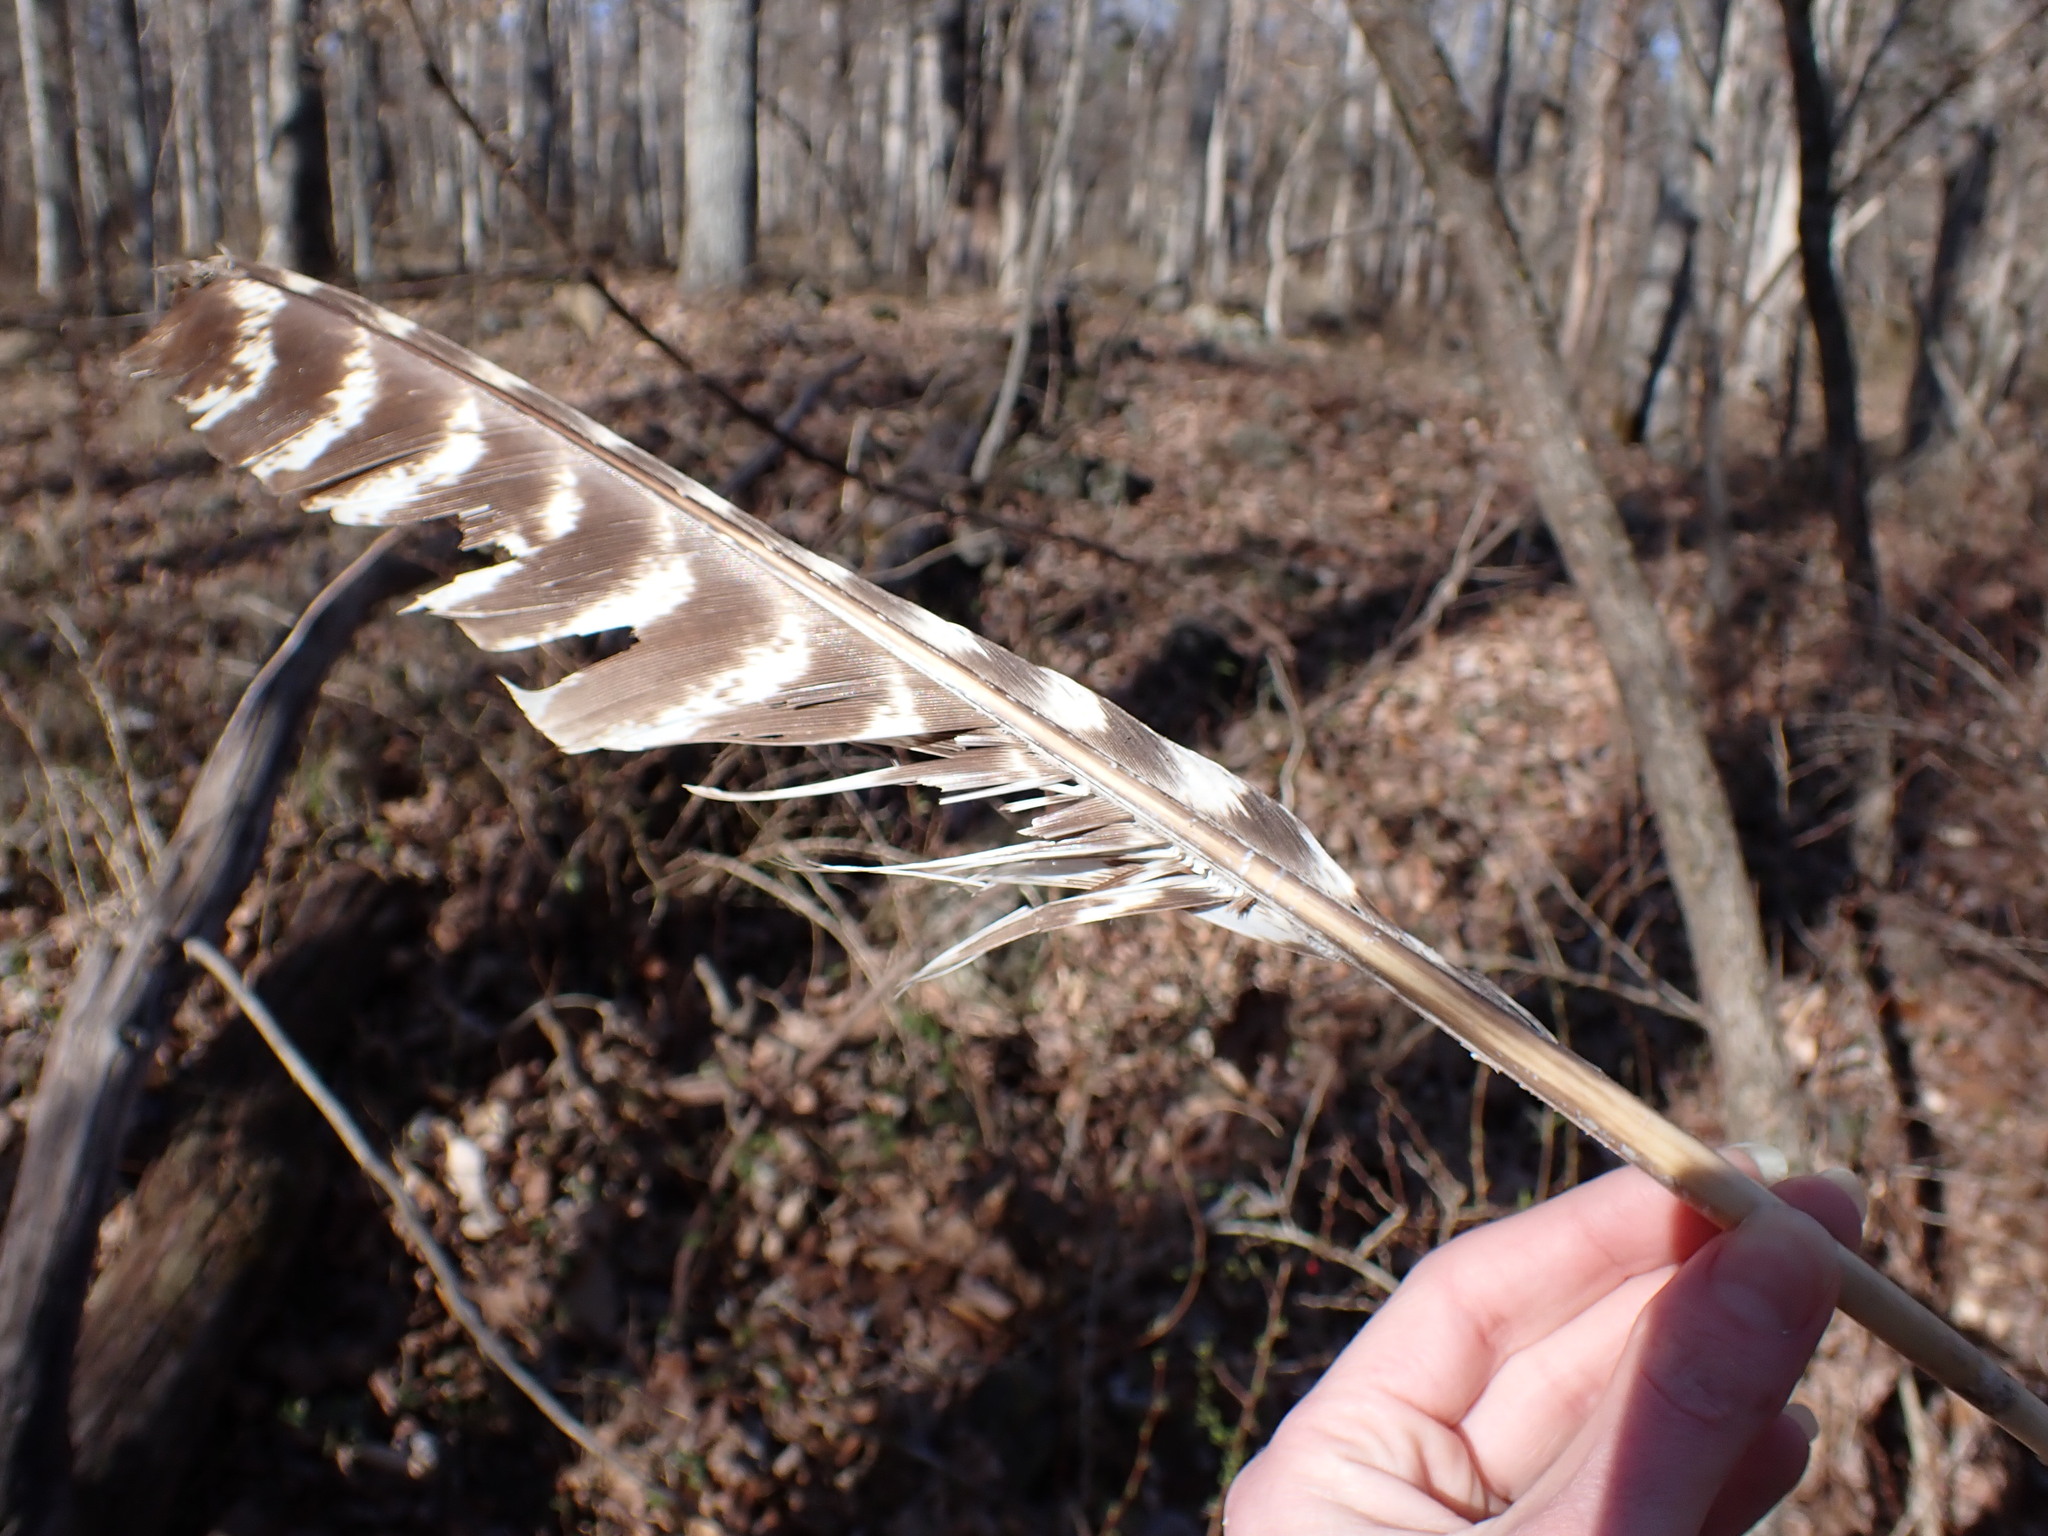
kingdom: Animalia
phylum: Chordata
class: Aves
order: Galliformes
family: Phasianidae
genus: Meleagris
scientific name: Meleagris gallopavo
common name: Wild turkey
